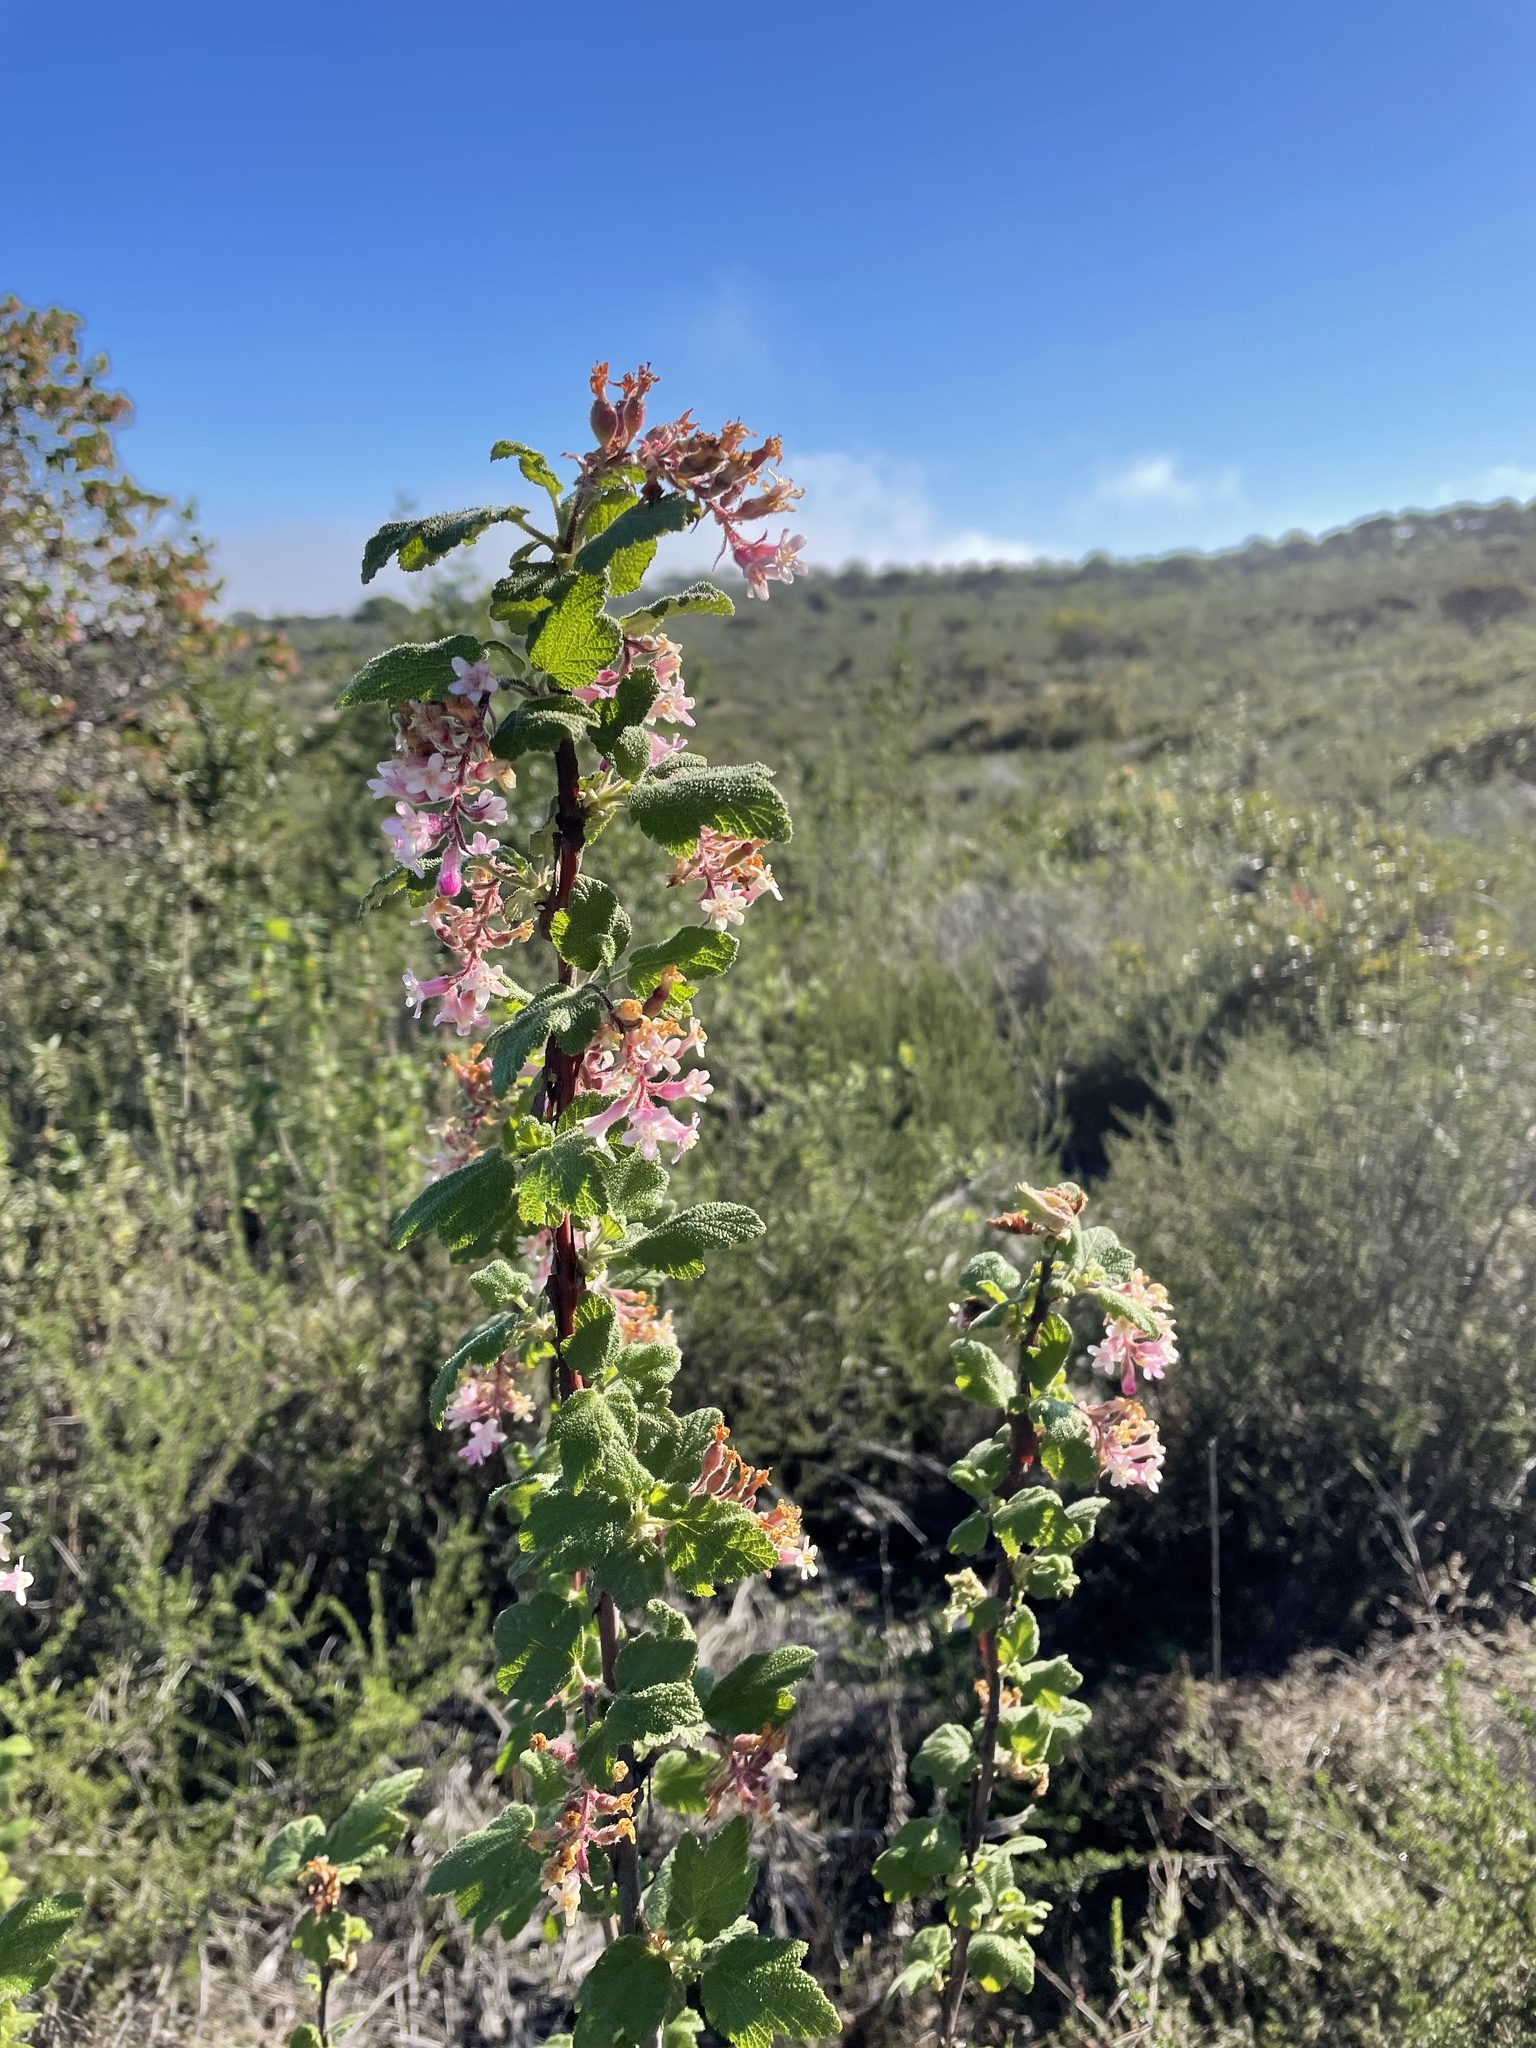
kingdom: Plantae
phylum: Tracheophyta
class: Magnoliopsida
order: Saxifragales
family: Grossulariaceae
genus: Ribes
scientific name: Ribes malvaceum
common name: Chaparral currant
